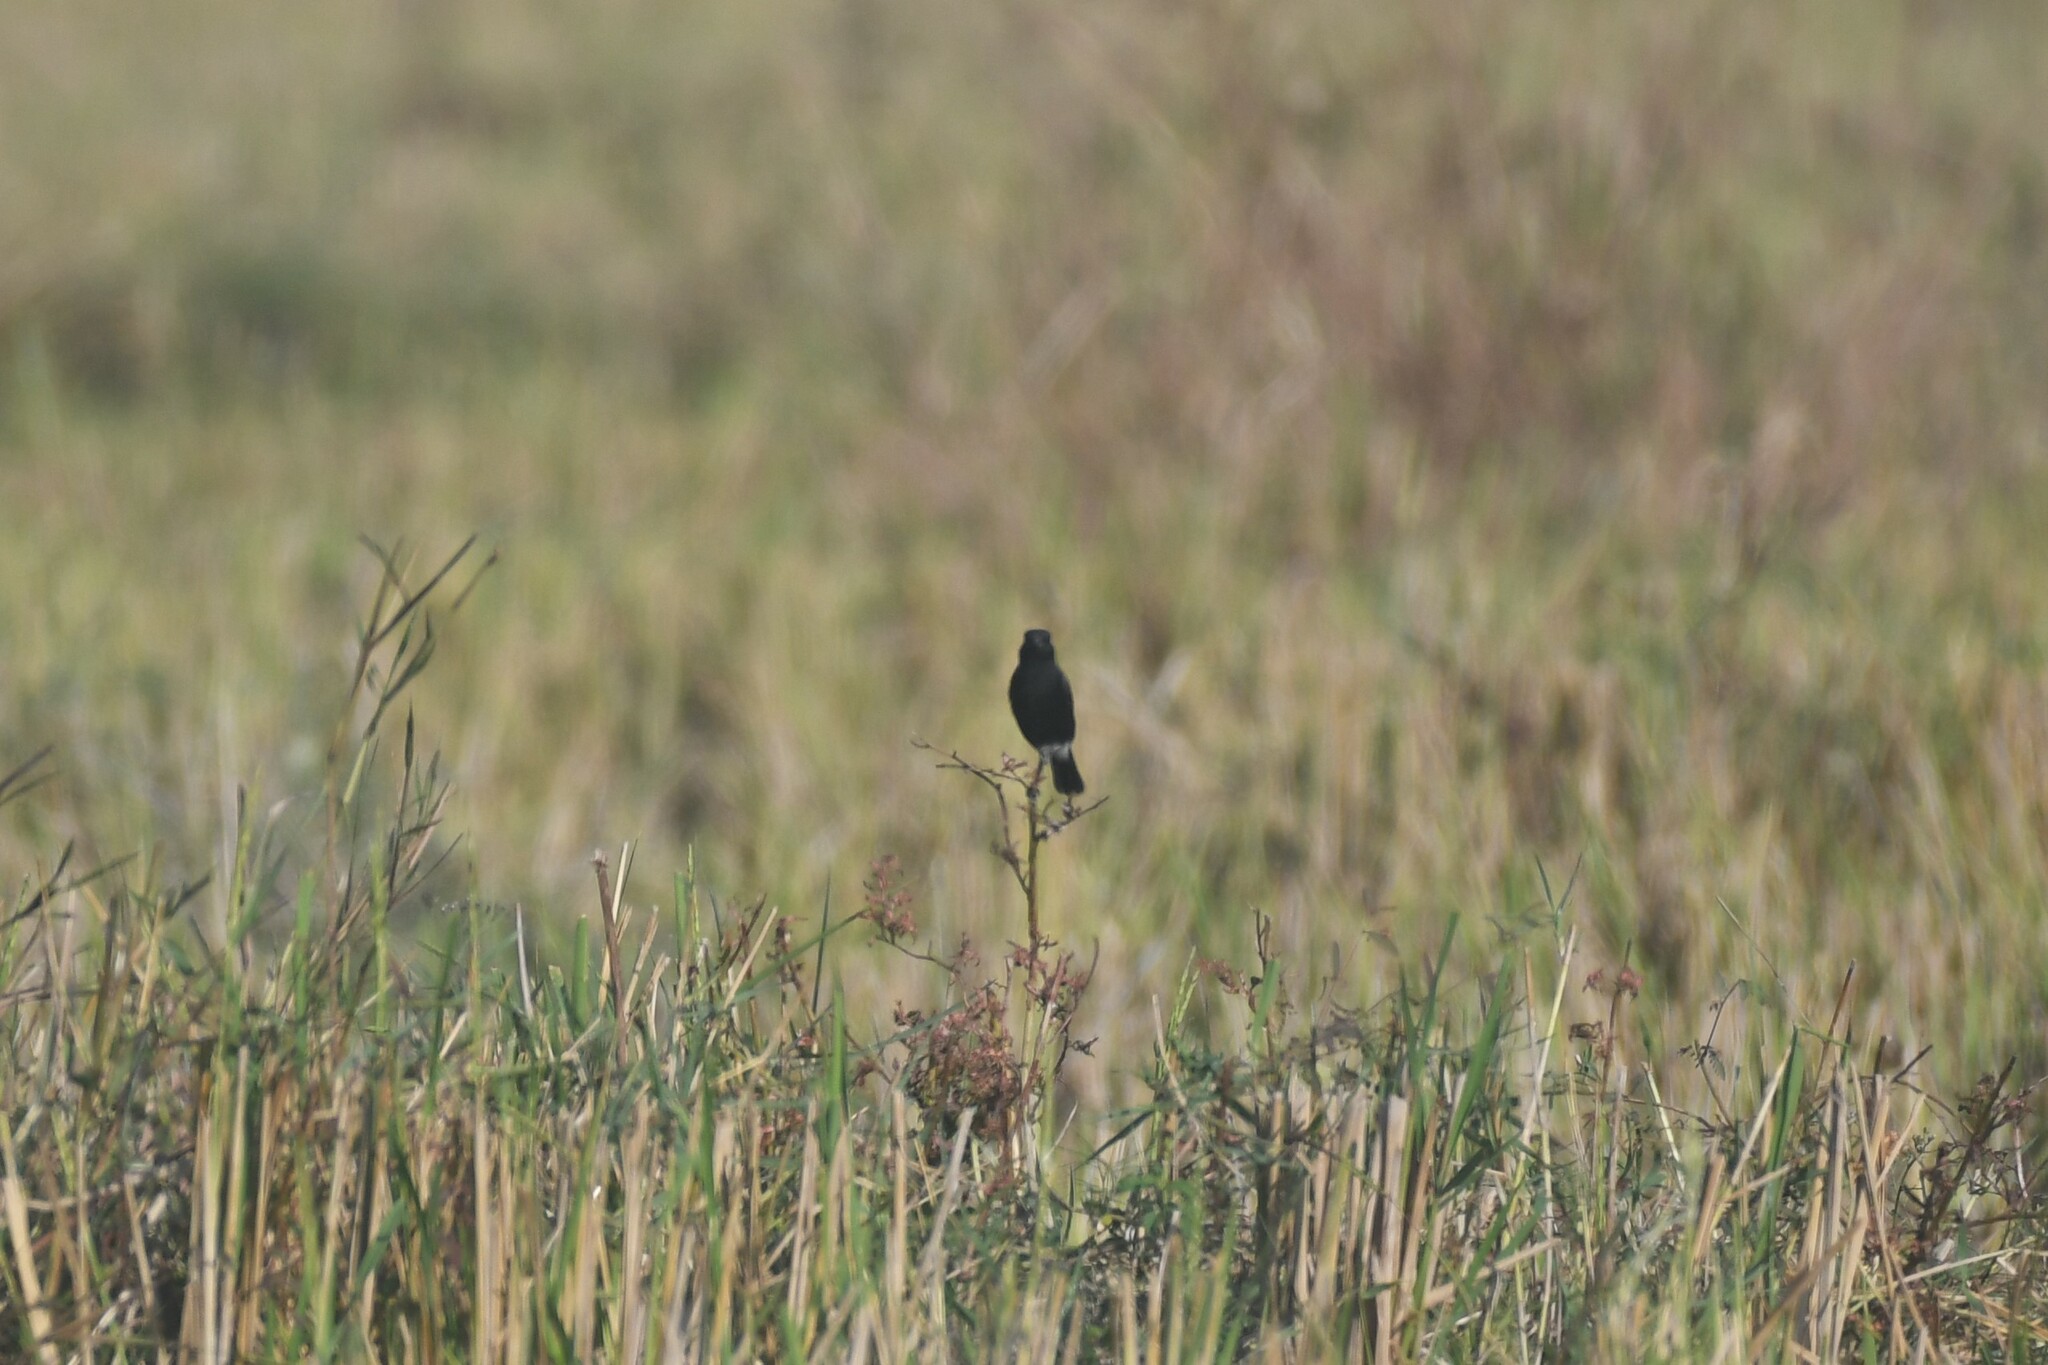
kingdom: Animalia
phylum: Chordata
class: Aves
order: Passeriformes
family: Muscicapidae
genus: Saxicola
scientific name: Saxicola caprata
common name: Pied bush chat
